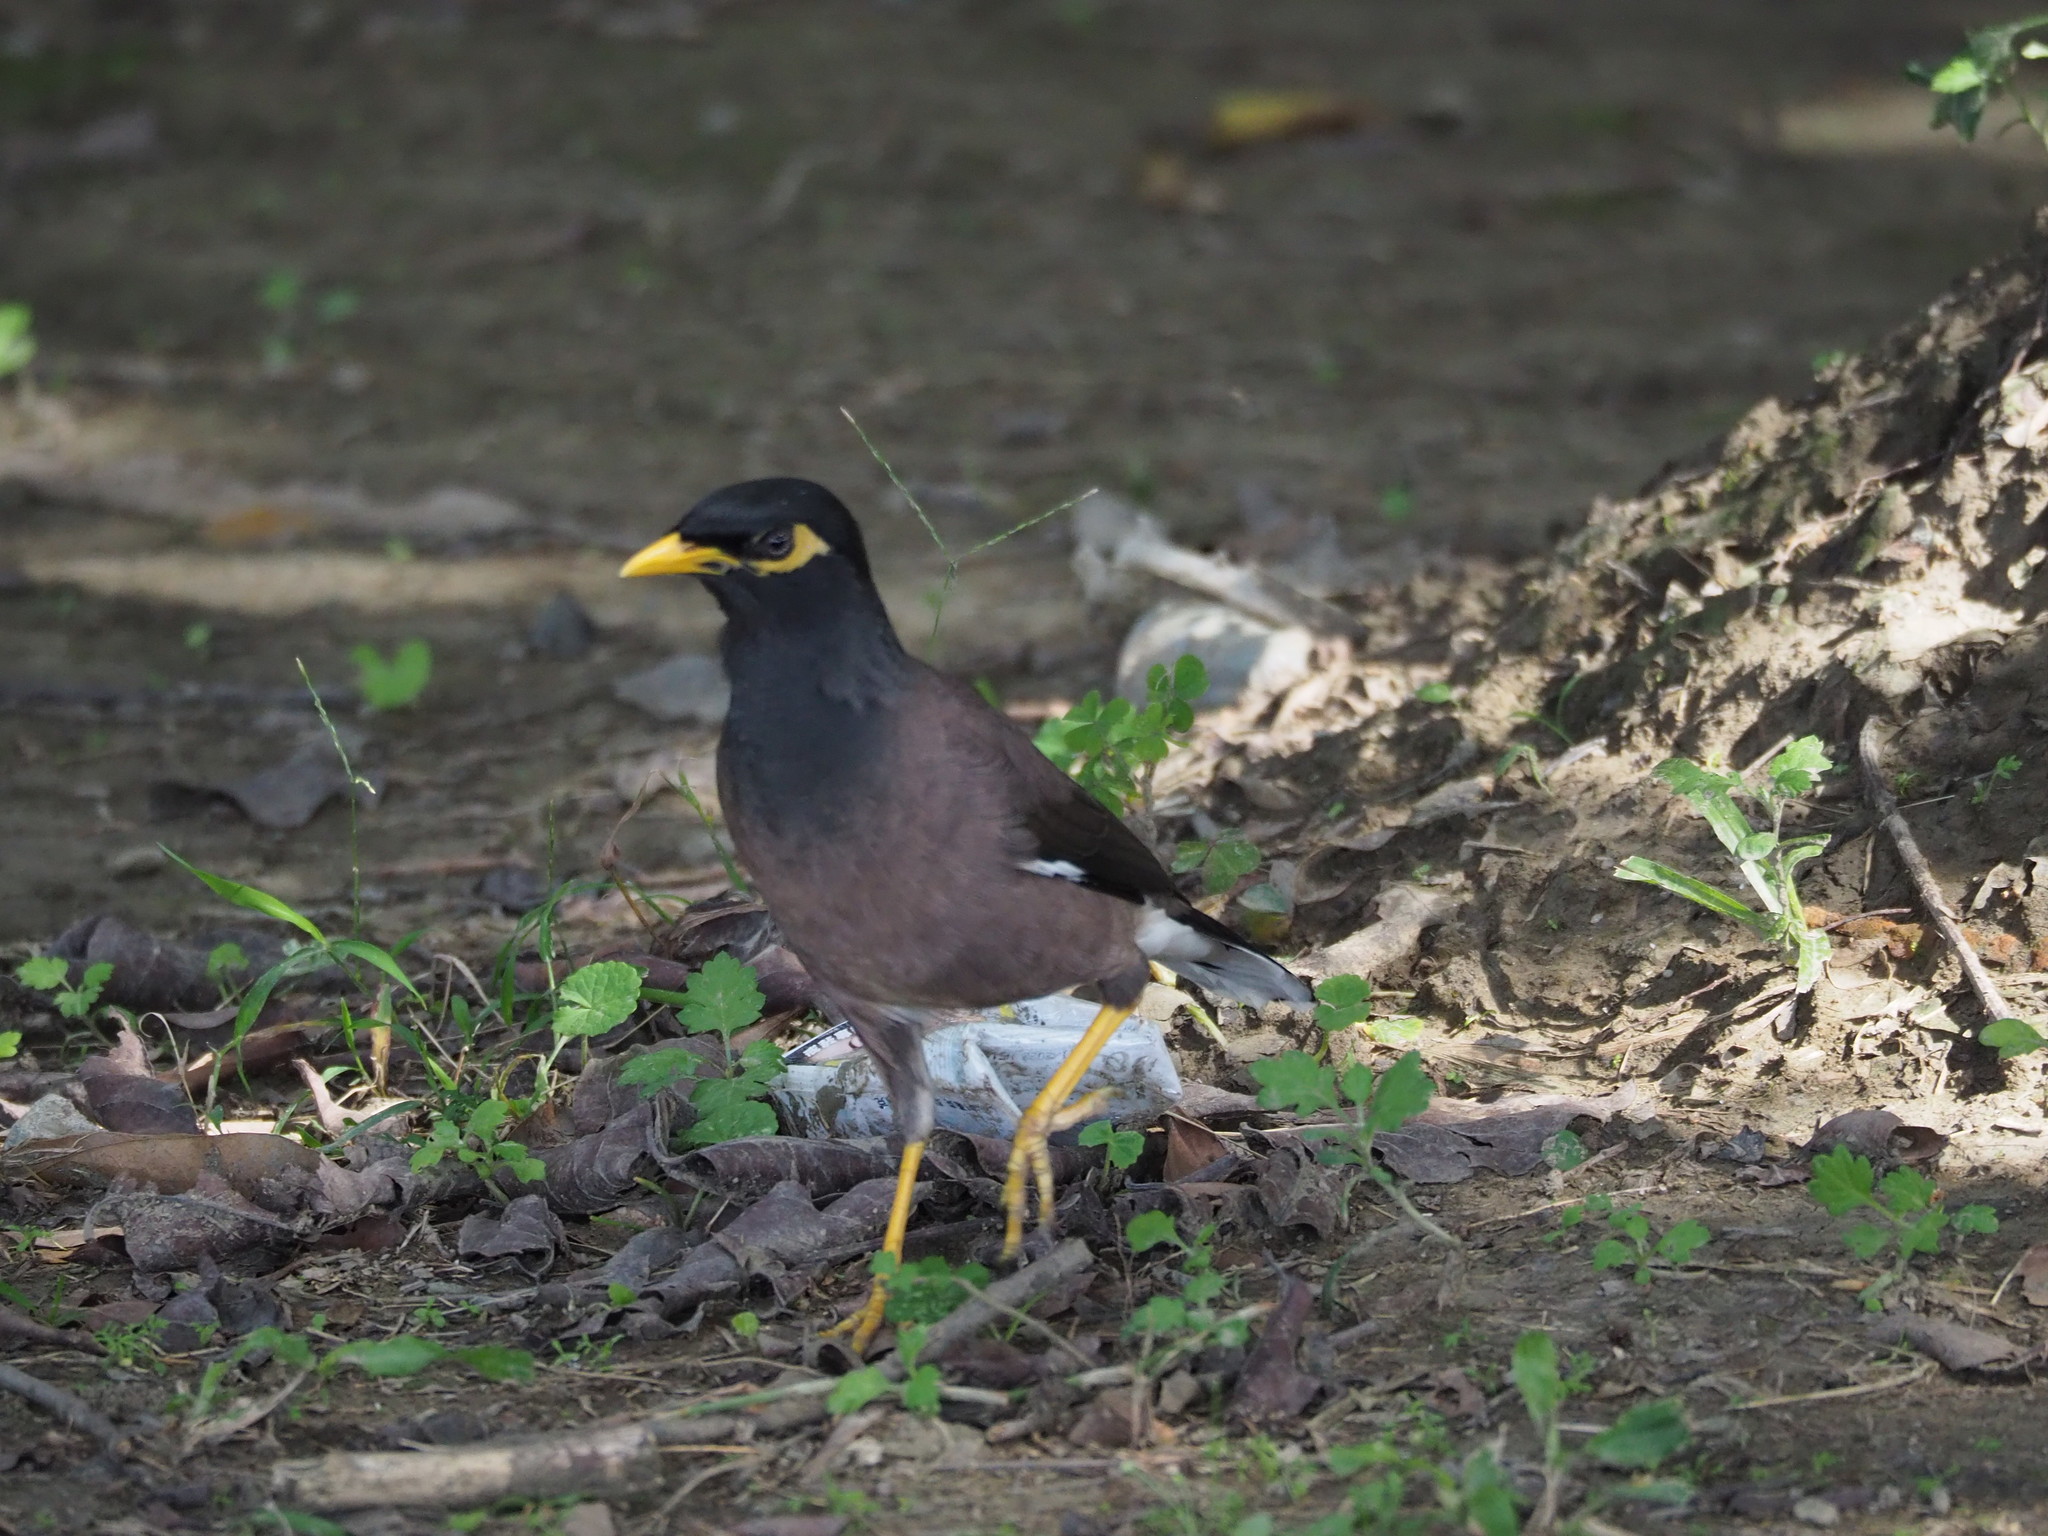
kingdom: Animalia
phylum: Chordata
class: Aves
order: Passeriformes
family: Sturnidae
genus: Acridotheres
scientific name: Acridotheres tristis
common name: Common myna
